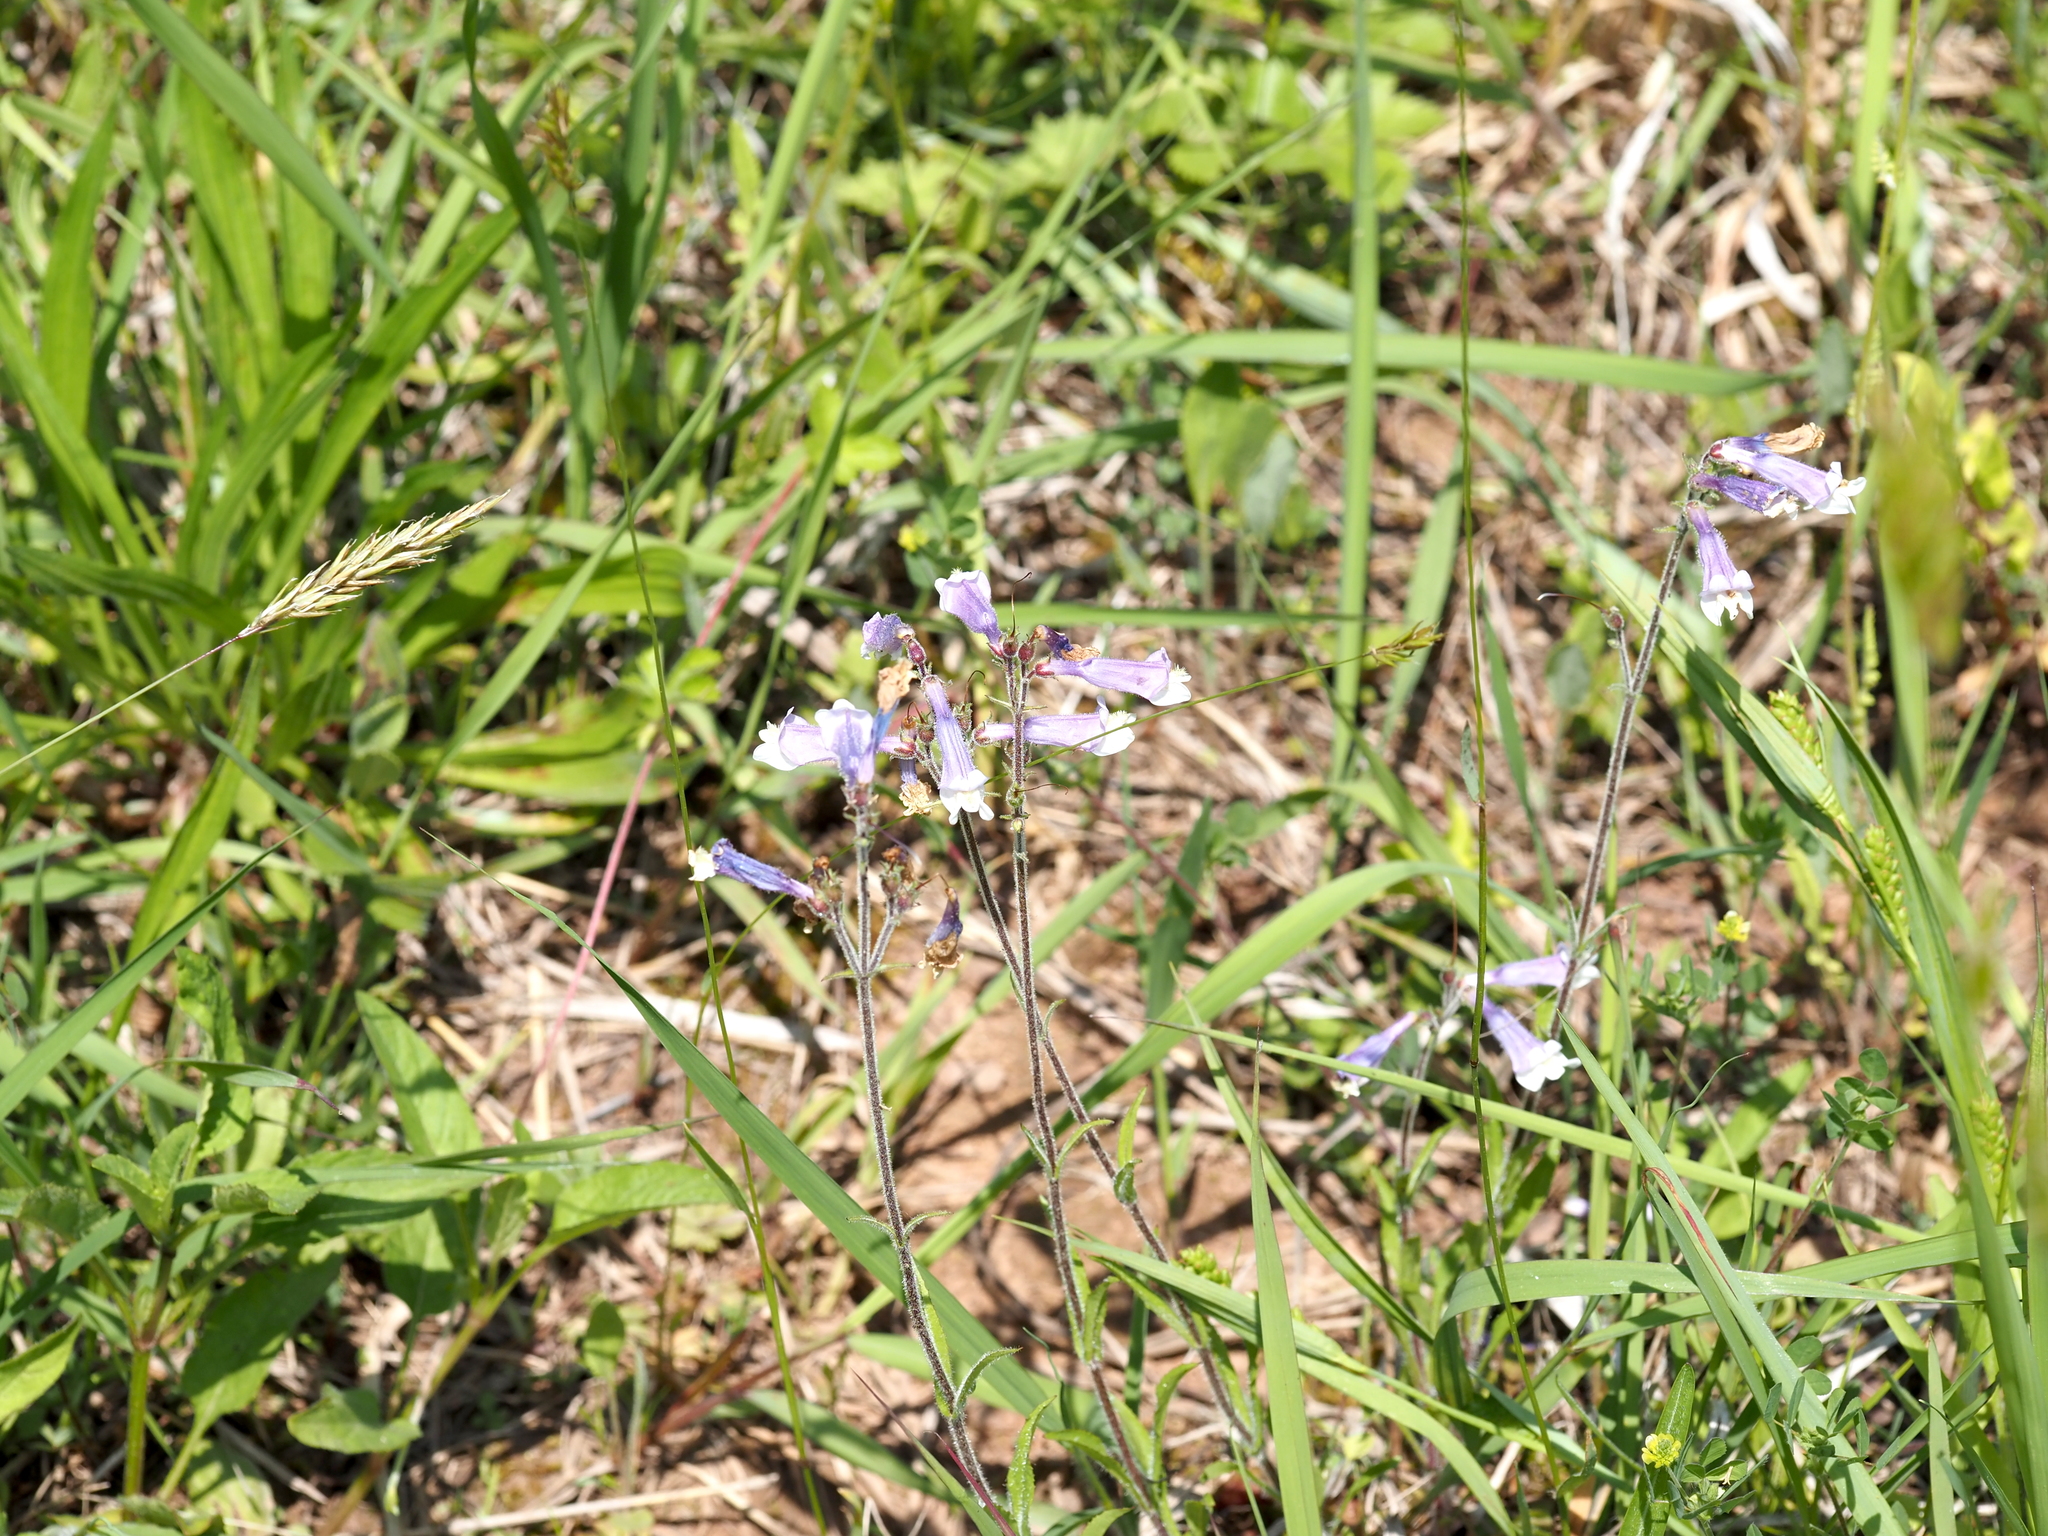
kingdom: Plantae
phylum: Tracheophyta
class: Magnoliopsida
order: Lamiales
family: Plantaginaceae
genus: Penstemon
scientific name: Penstemon hirsutus
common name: Hairy beardtongue
